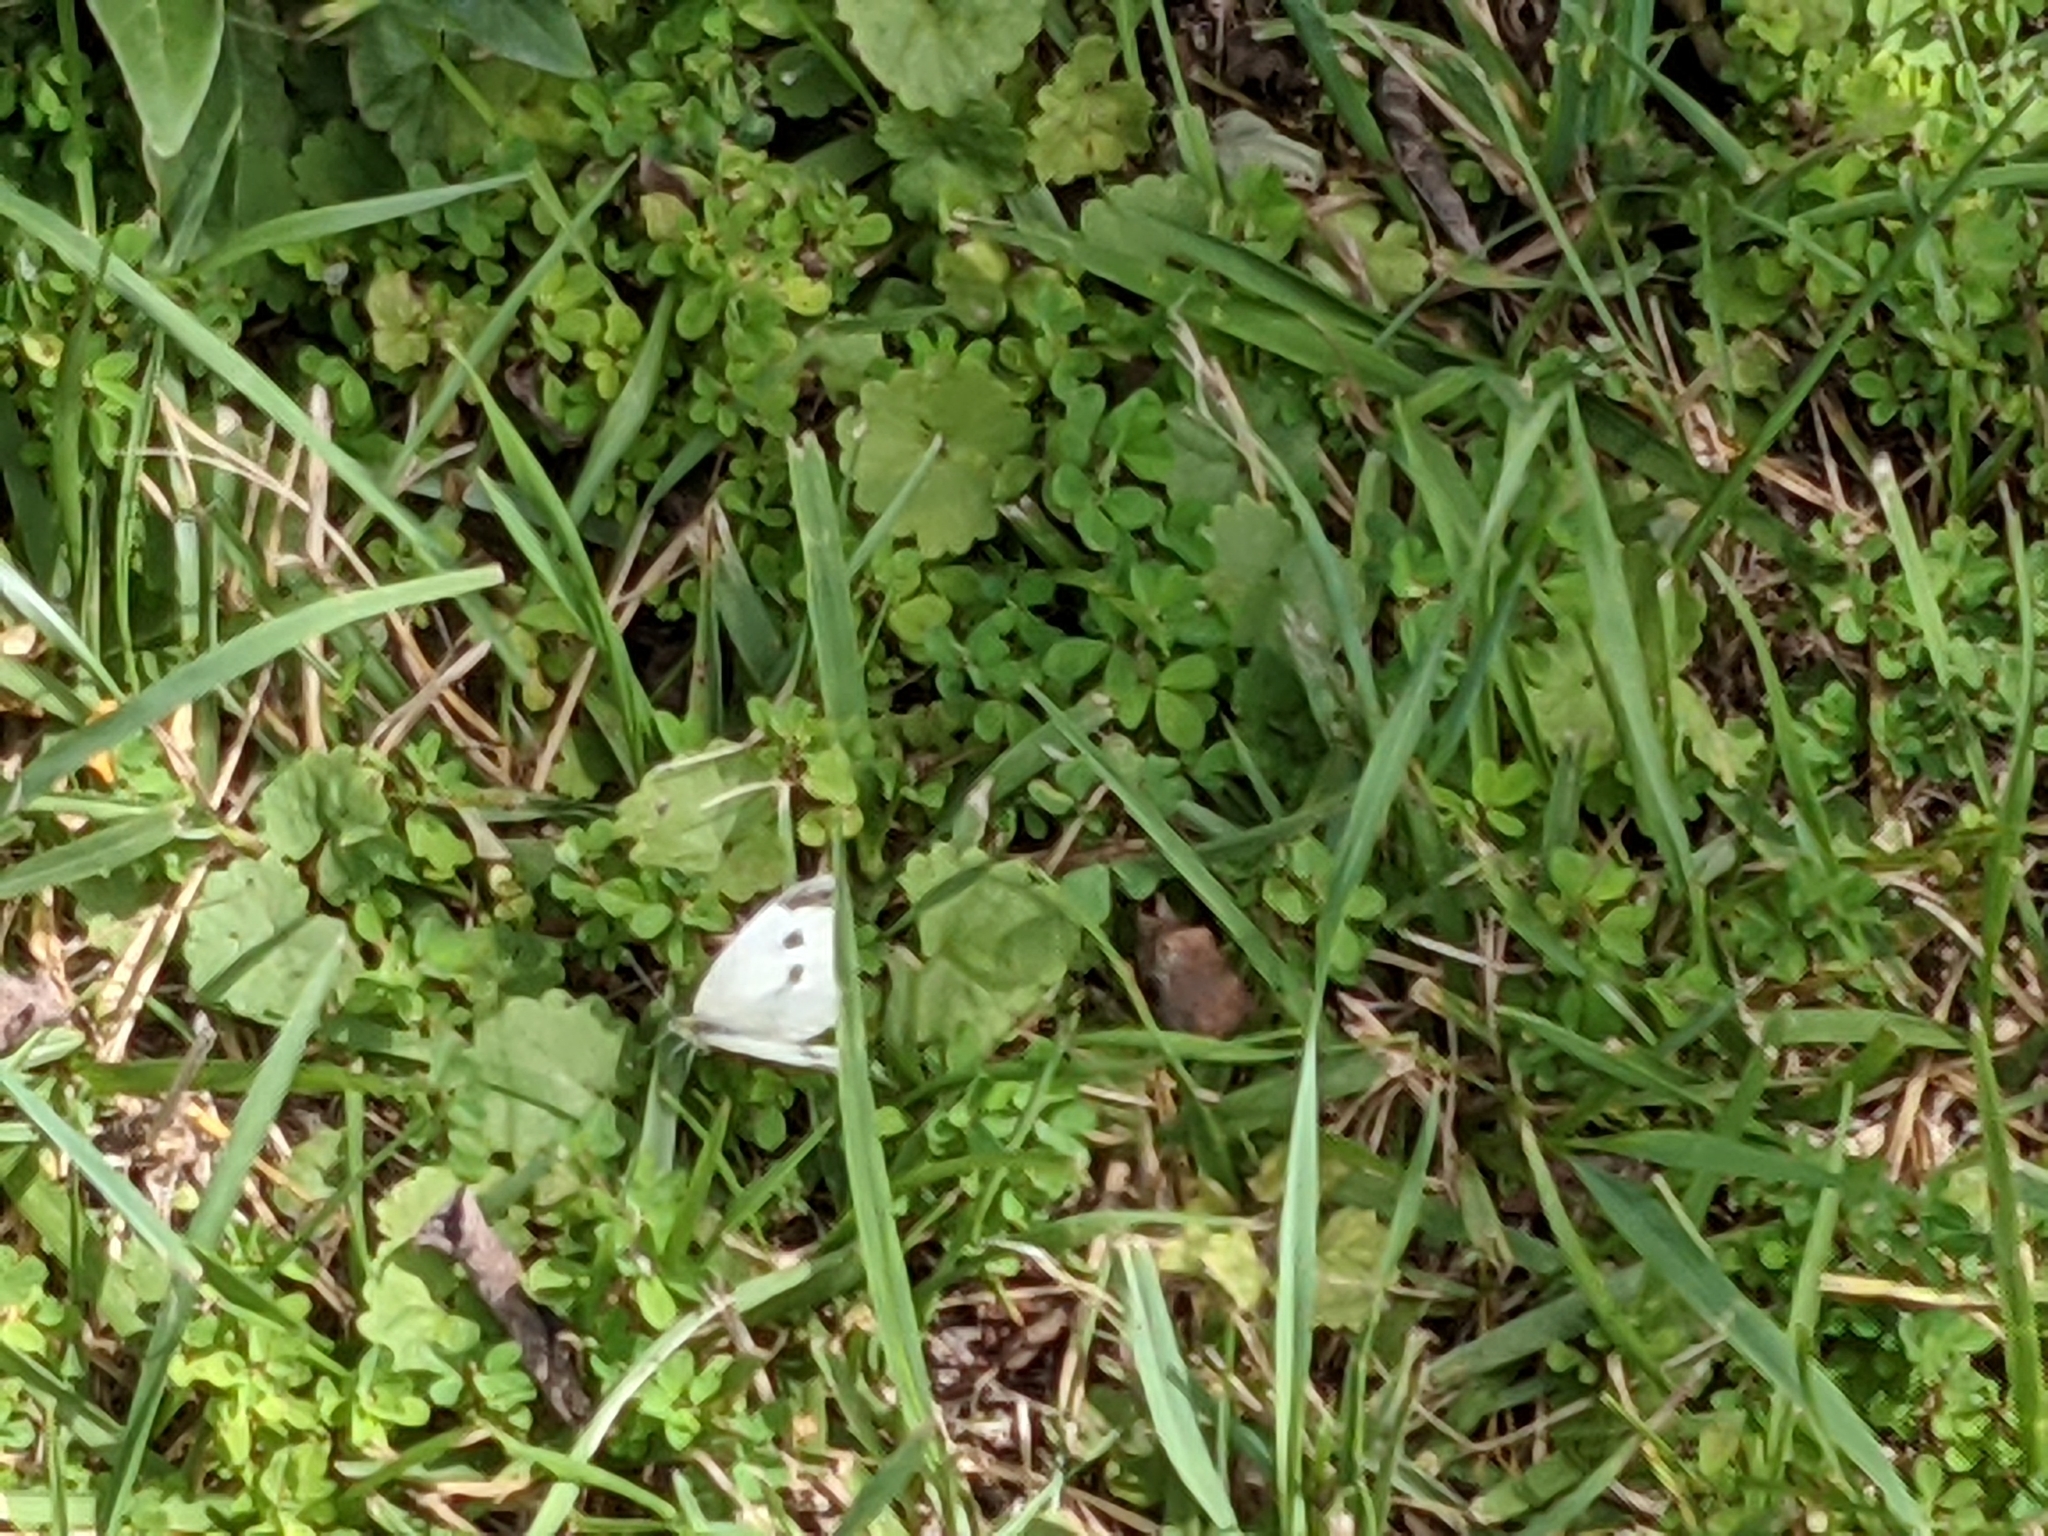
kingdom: Animalia
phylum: Arthropoda
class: Insecta
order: Lepidoptera
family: Pieridae
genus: Pieris
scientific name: Pieris rapae
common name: Small white
